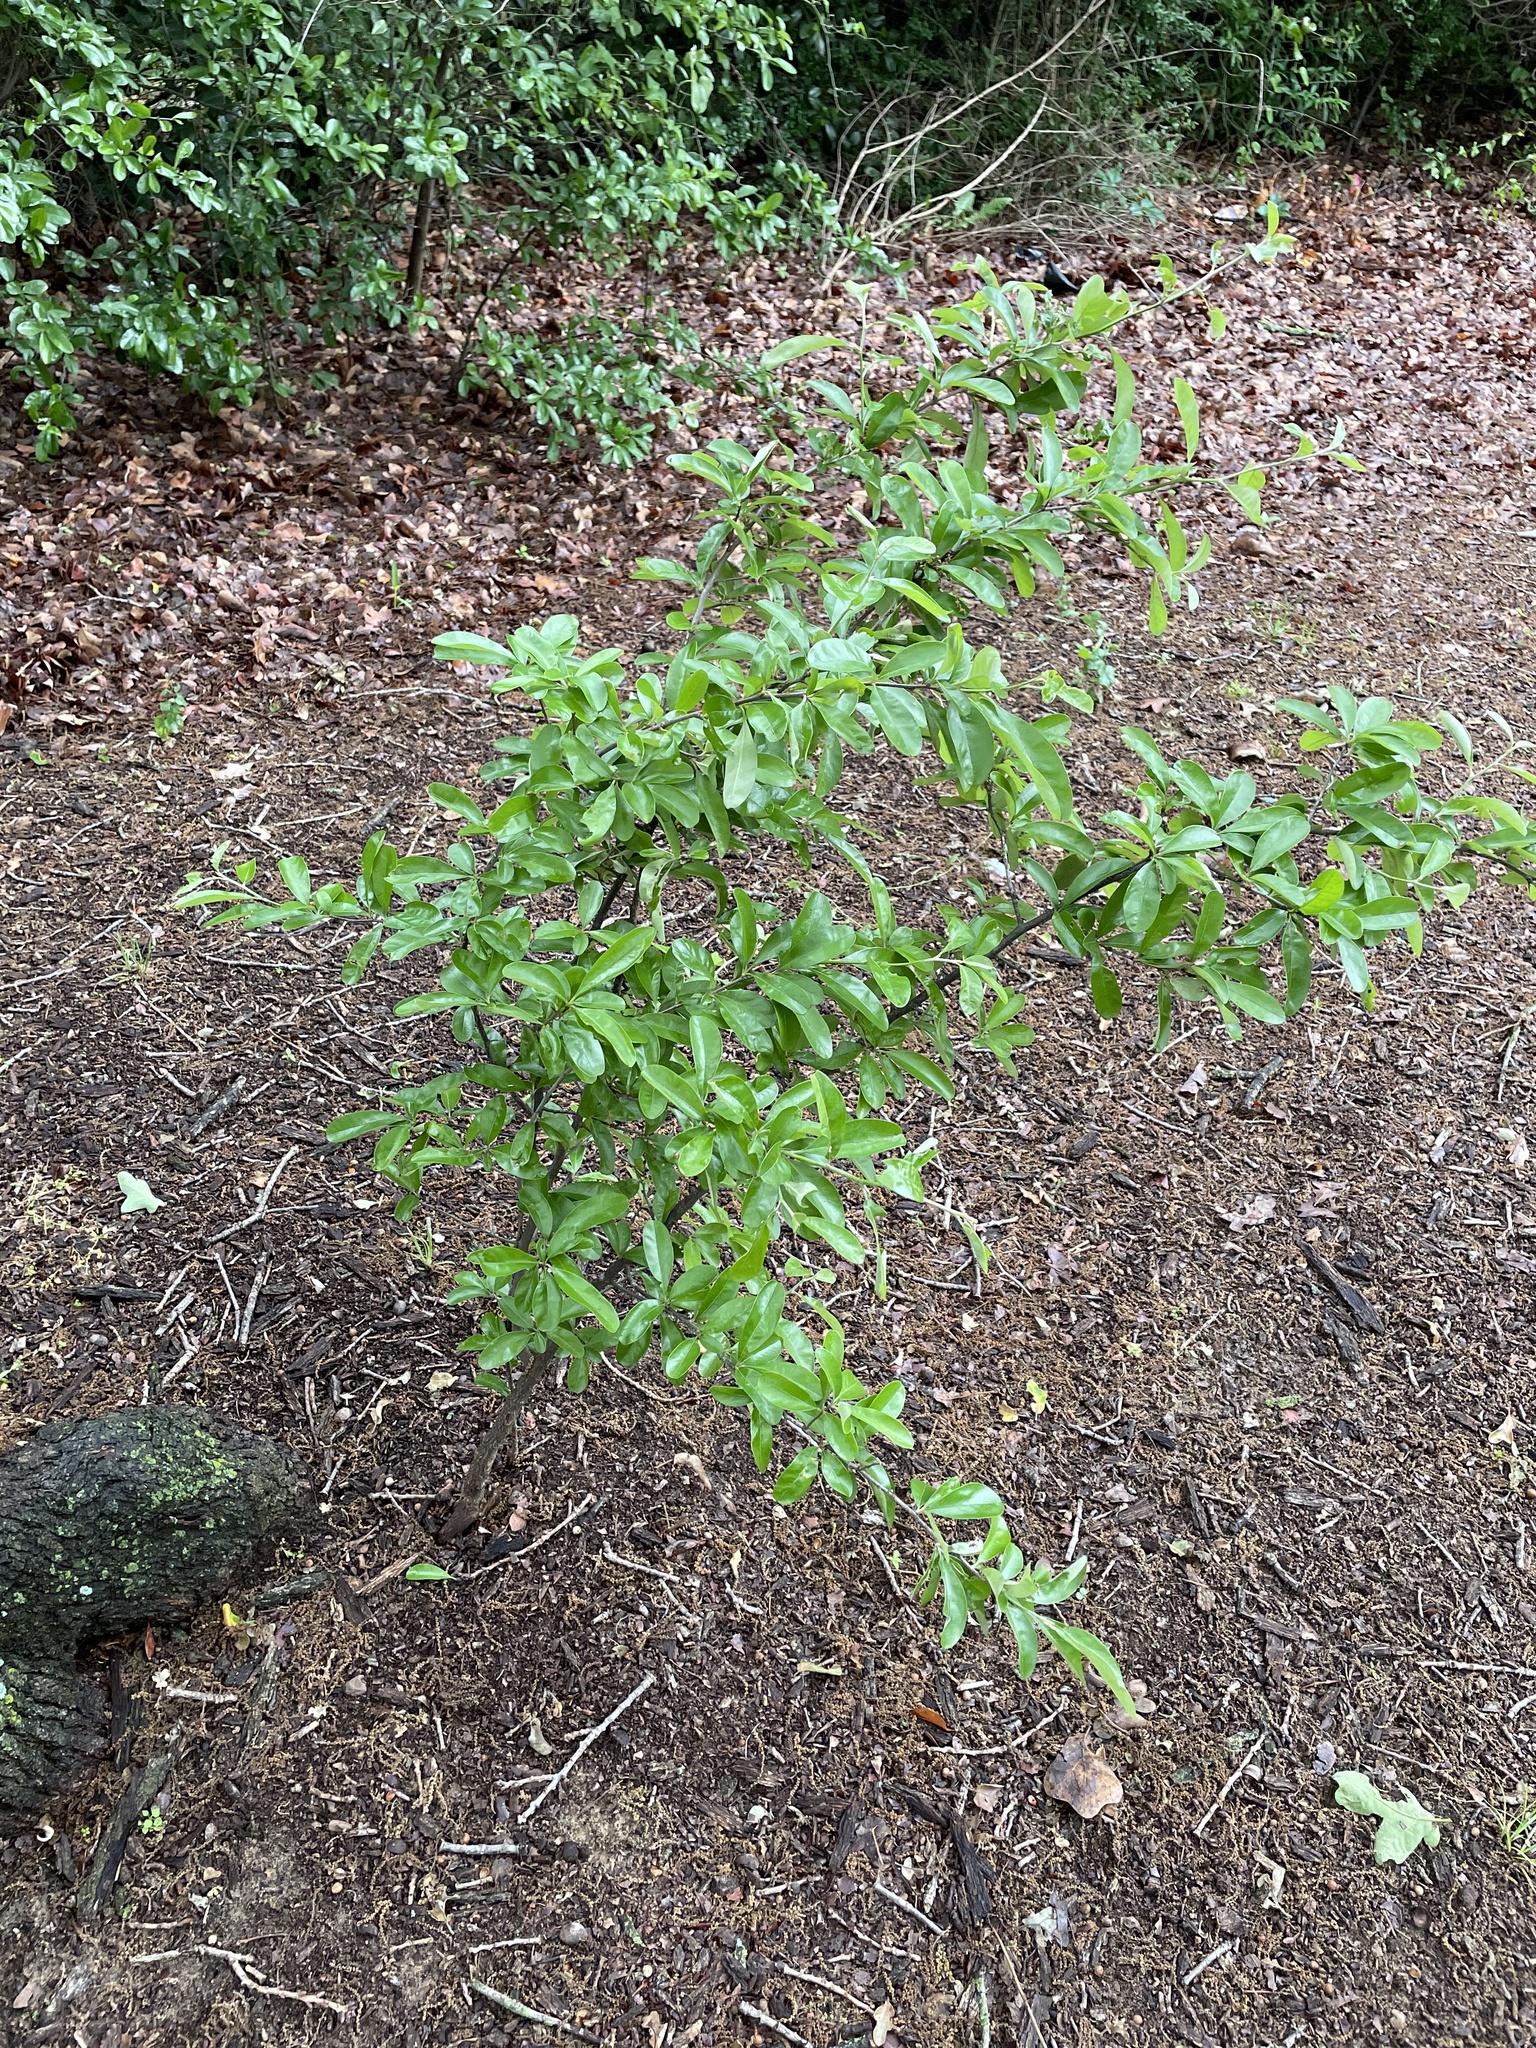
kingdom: Plantae
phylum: Tracheophyta
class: Magnoliopsida
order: Ericales
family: Sapotaceae
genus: Sideroxylon
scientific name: Sideroxylon lanuginosum
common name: Chittamwood
